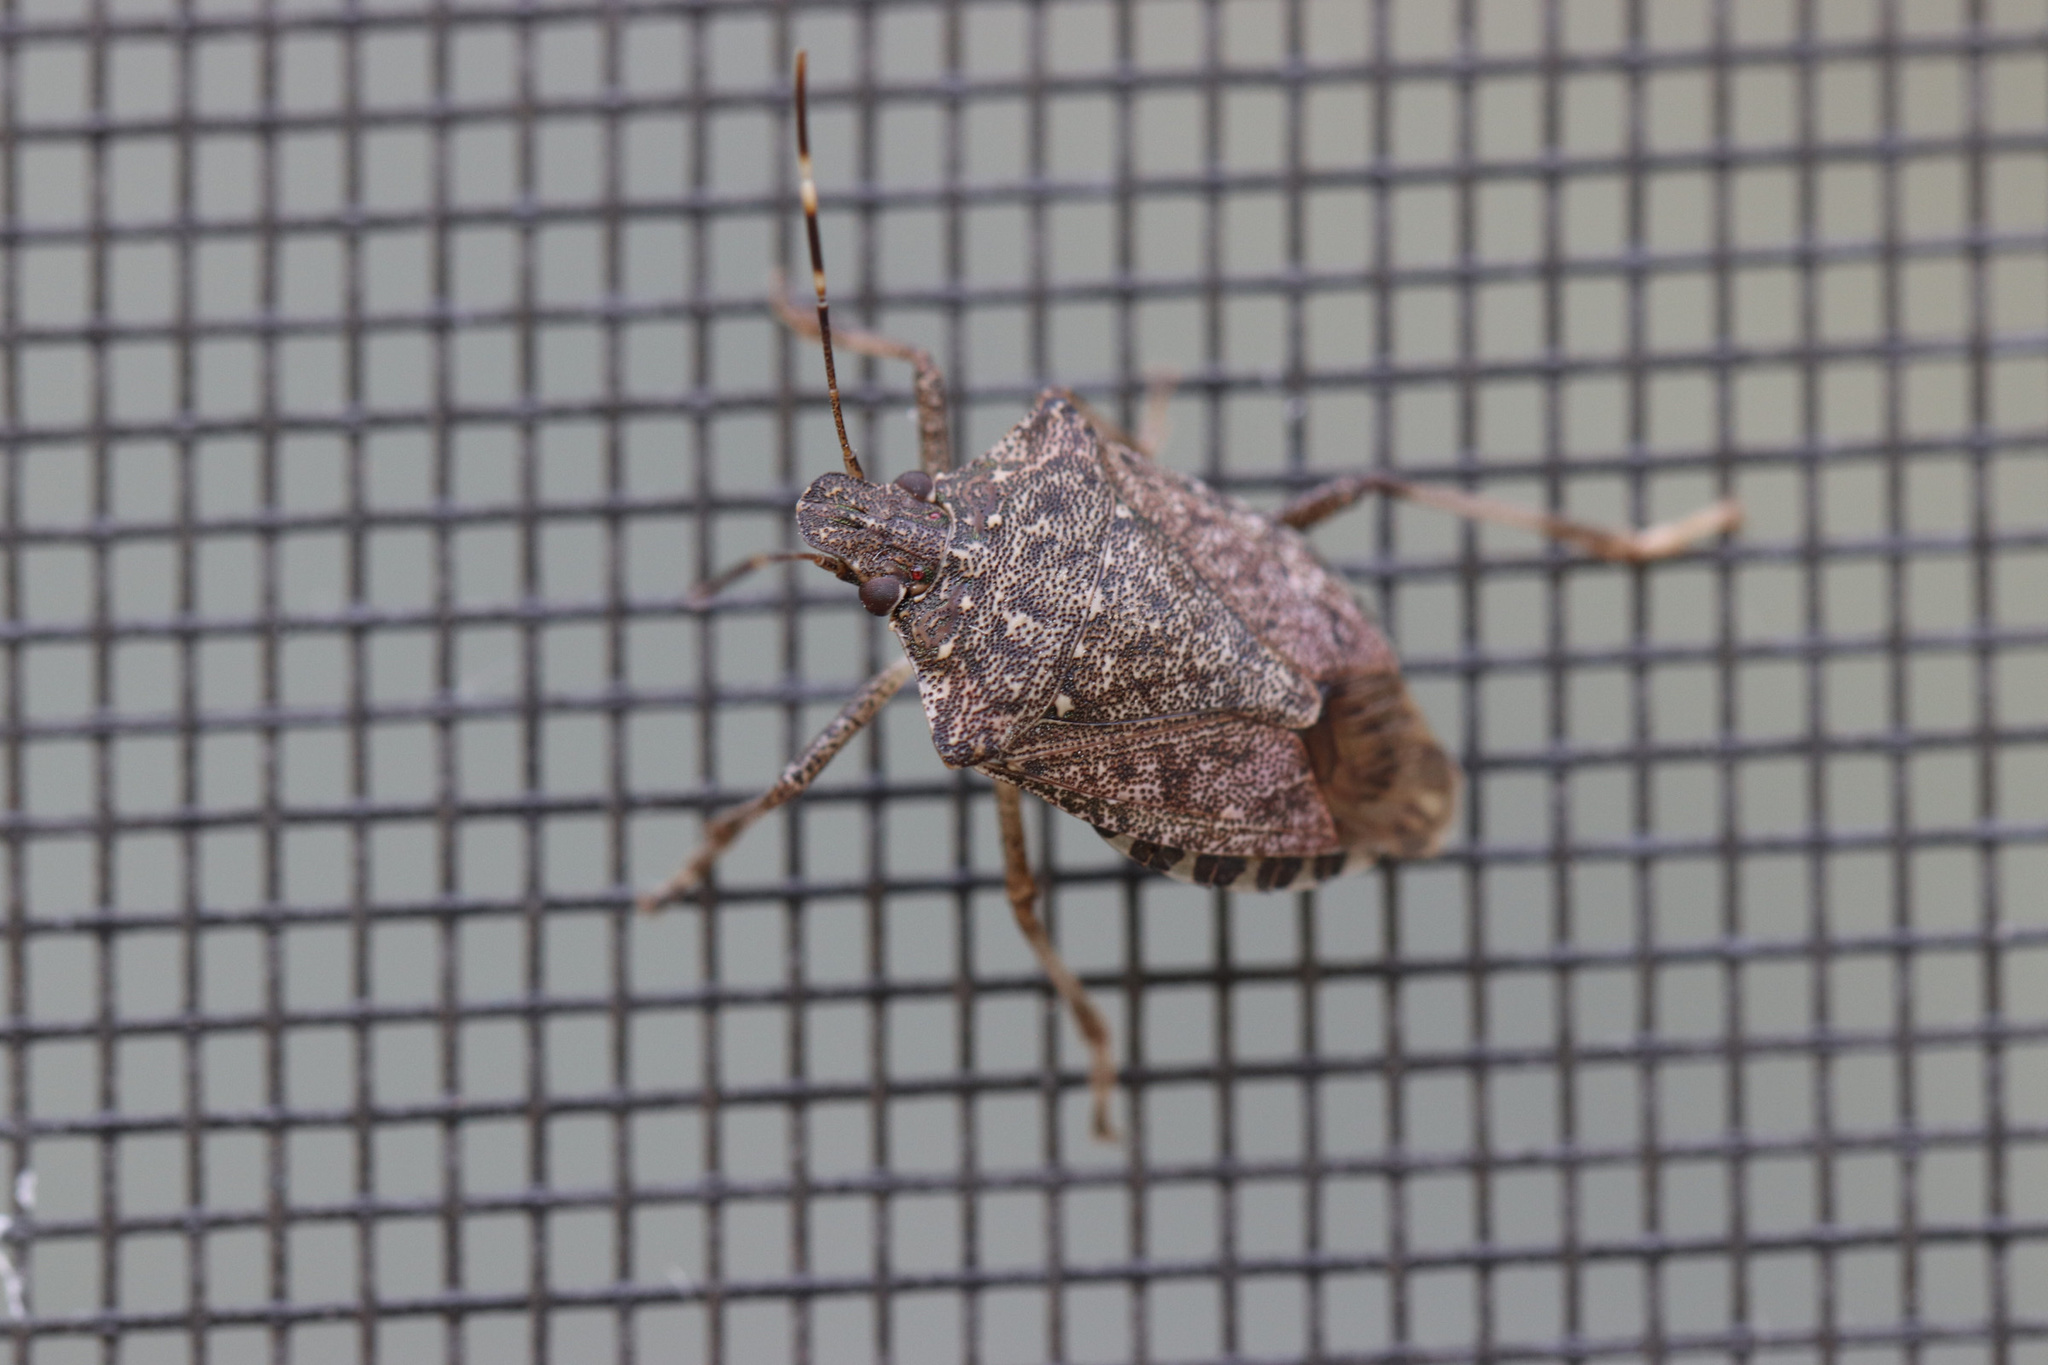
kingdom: Animalia
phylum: Arthropoda
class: Insecta
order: Hemiptera
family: Pentatomidae
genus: Halyomorpha
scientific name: Halyomorpha halys
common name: Brown marmorated stink bug
